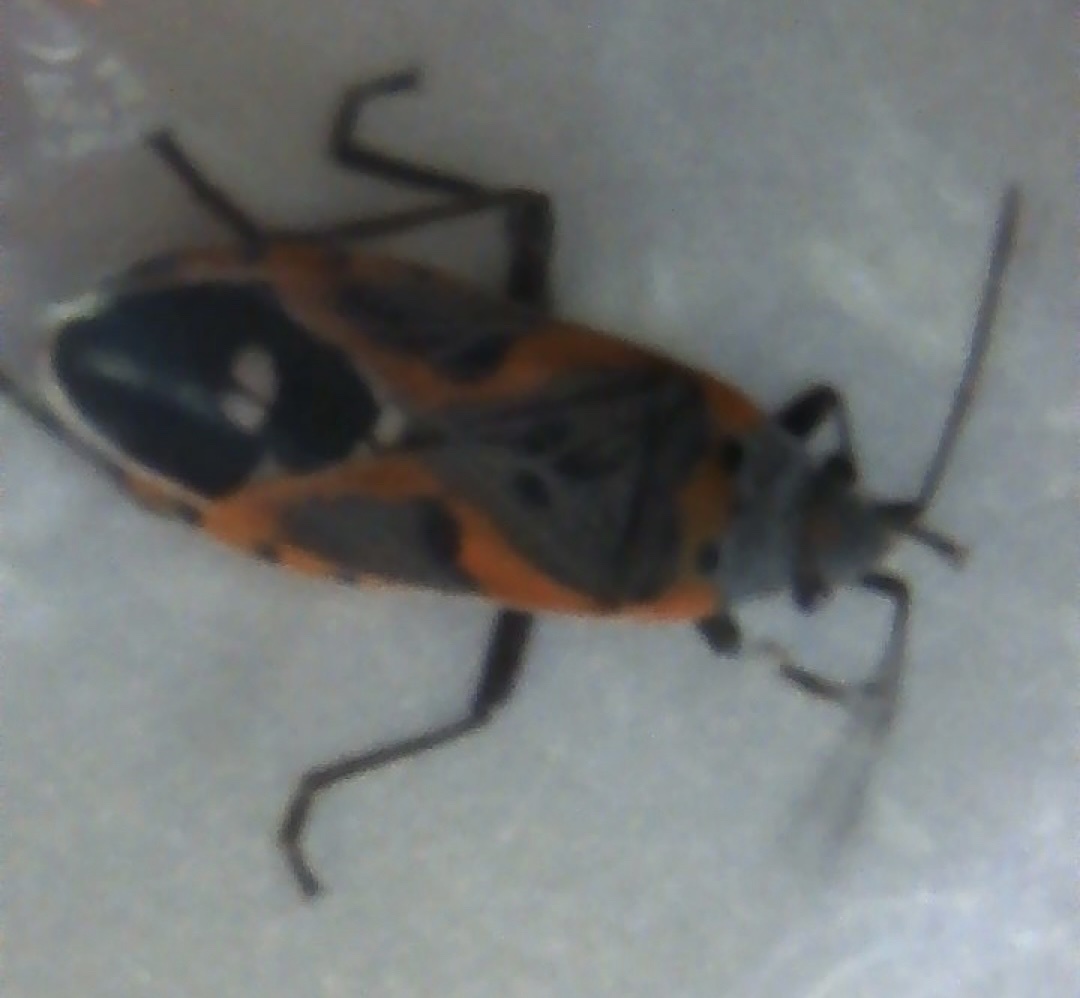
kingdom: Animalia
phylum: Arthropoda
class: Insecta
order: Hemiptera
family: Lygaeidae
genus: Lygaeus
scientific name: Lygaeus kalmii
